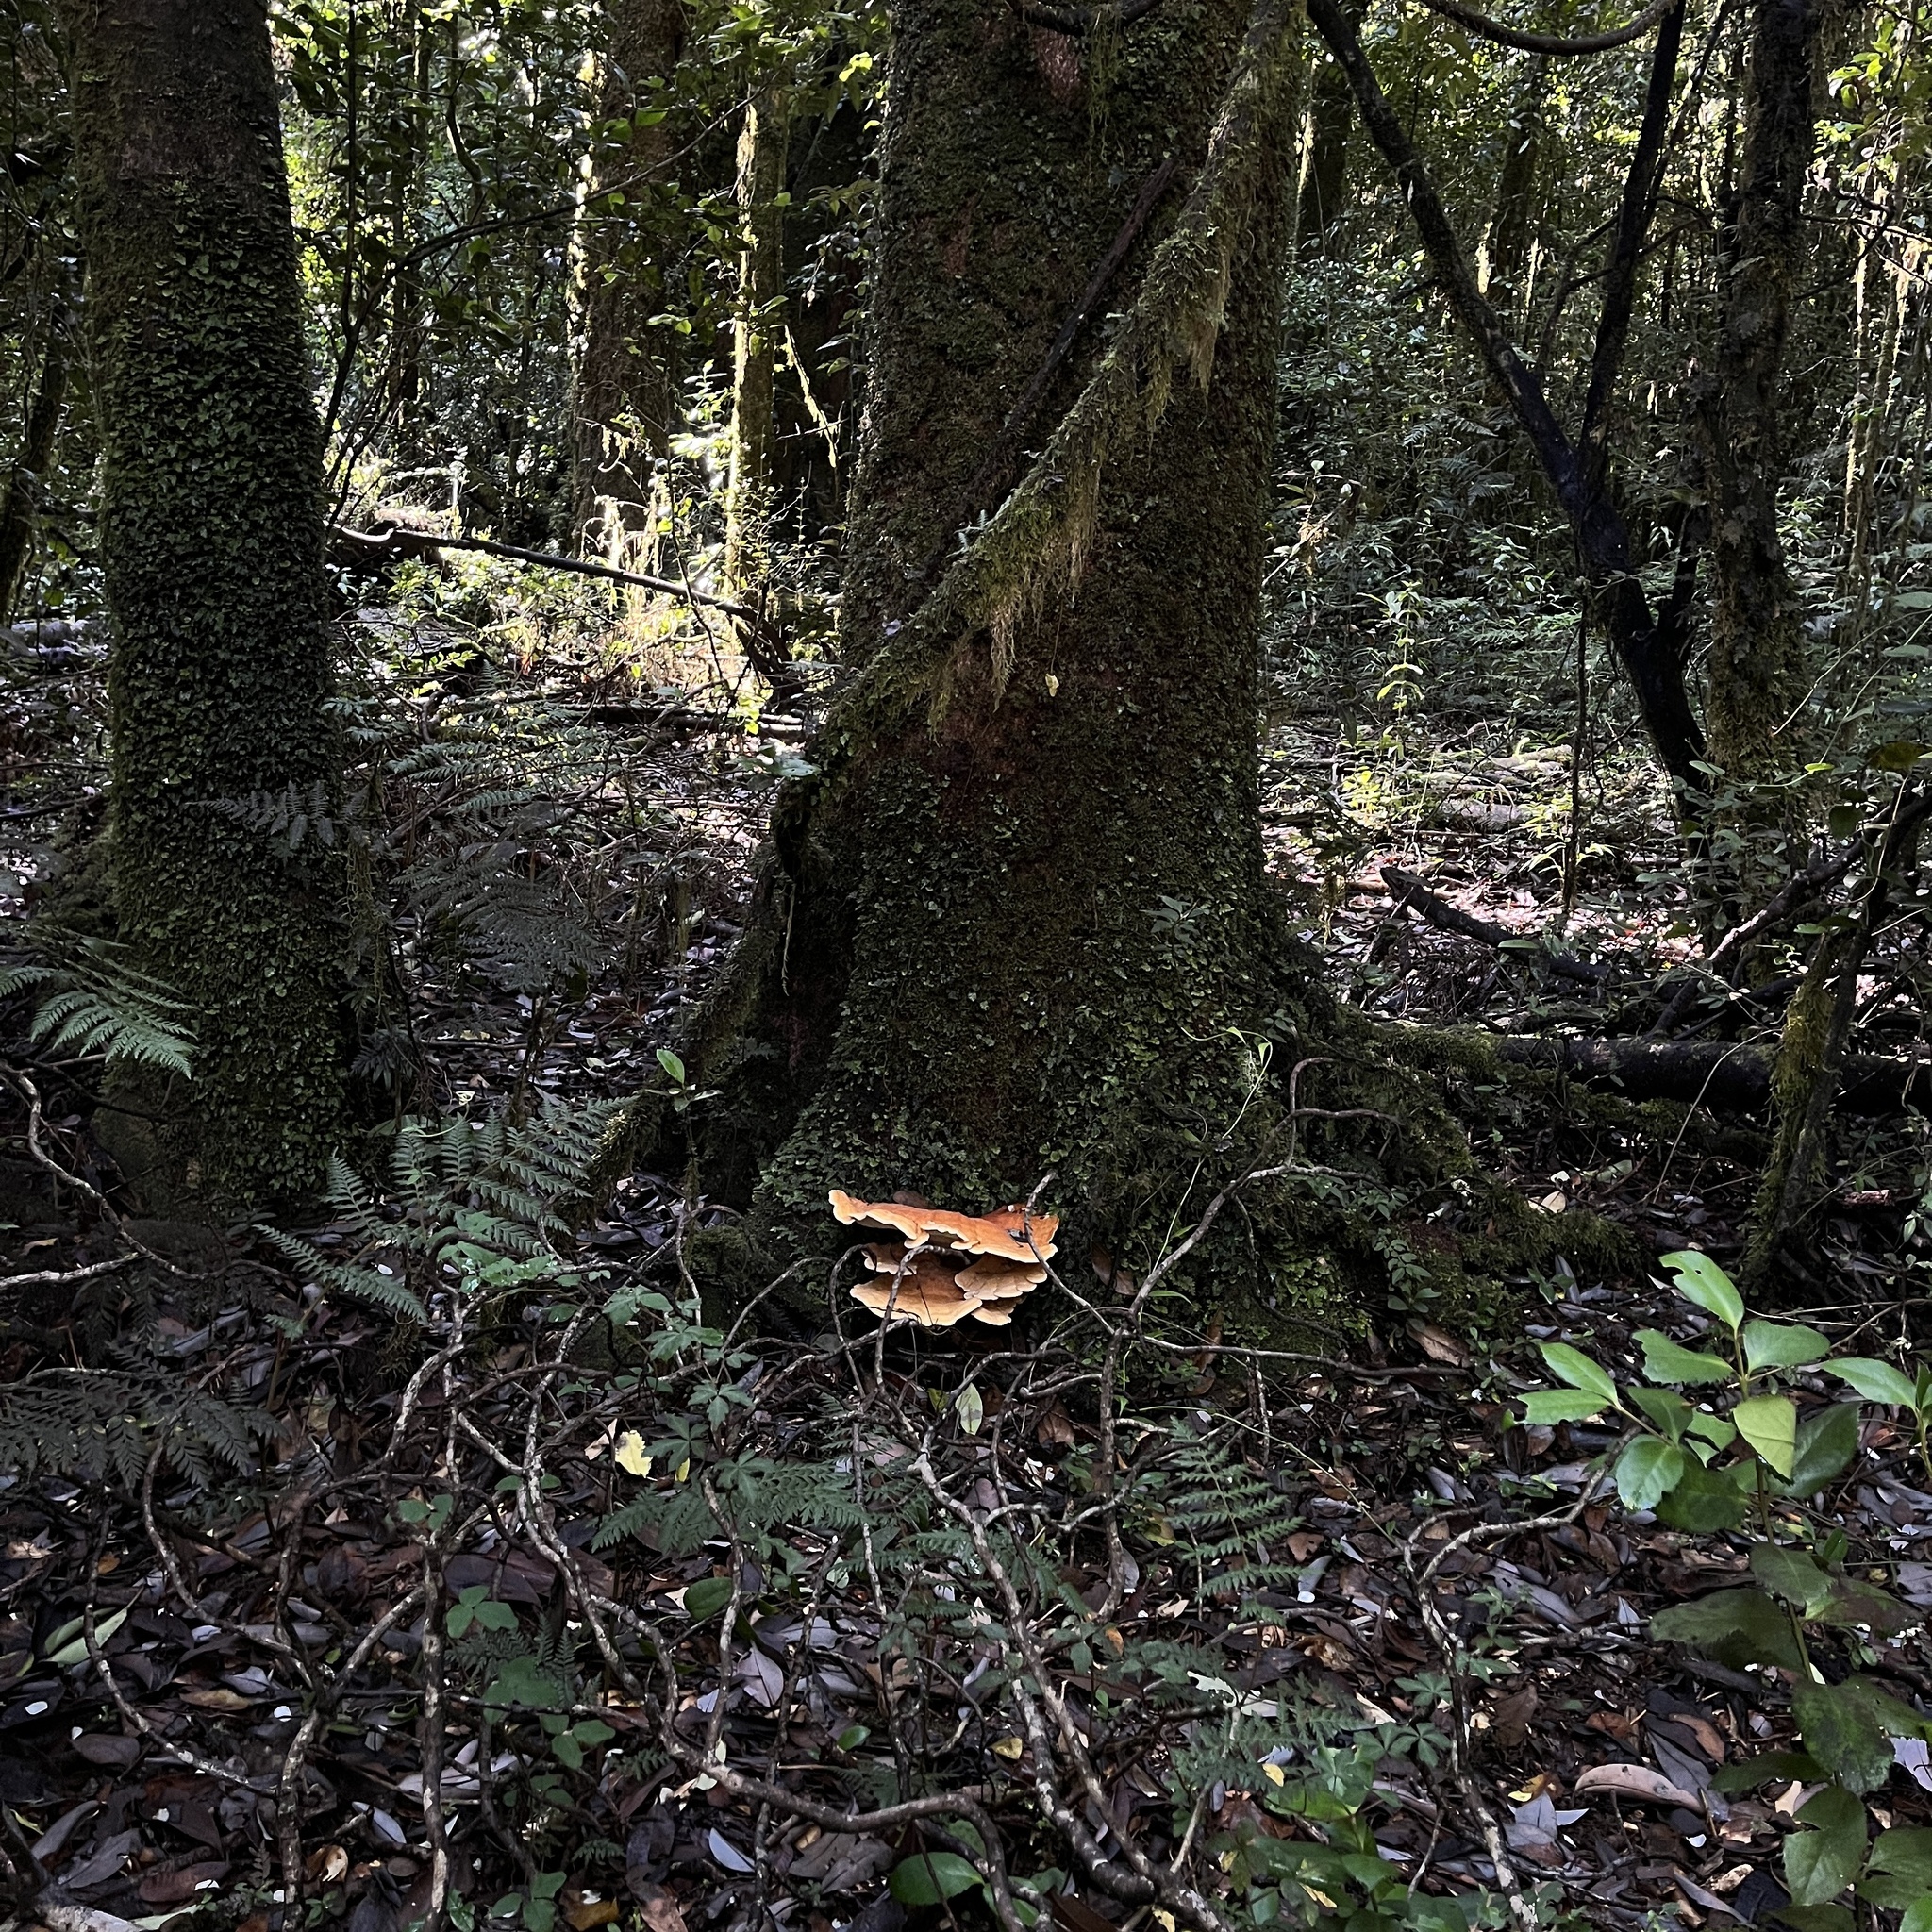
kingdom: Fungi
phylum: Basidiomycota
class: Agaricomycetes
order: Russulales
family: Bondarzewiaceae
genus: Bondarzewia
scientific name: Bondarzewia guaitecasensis
